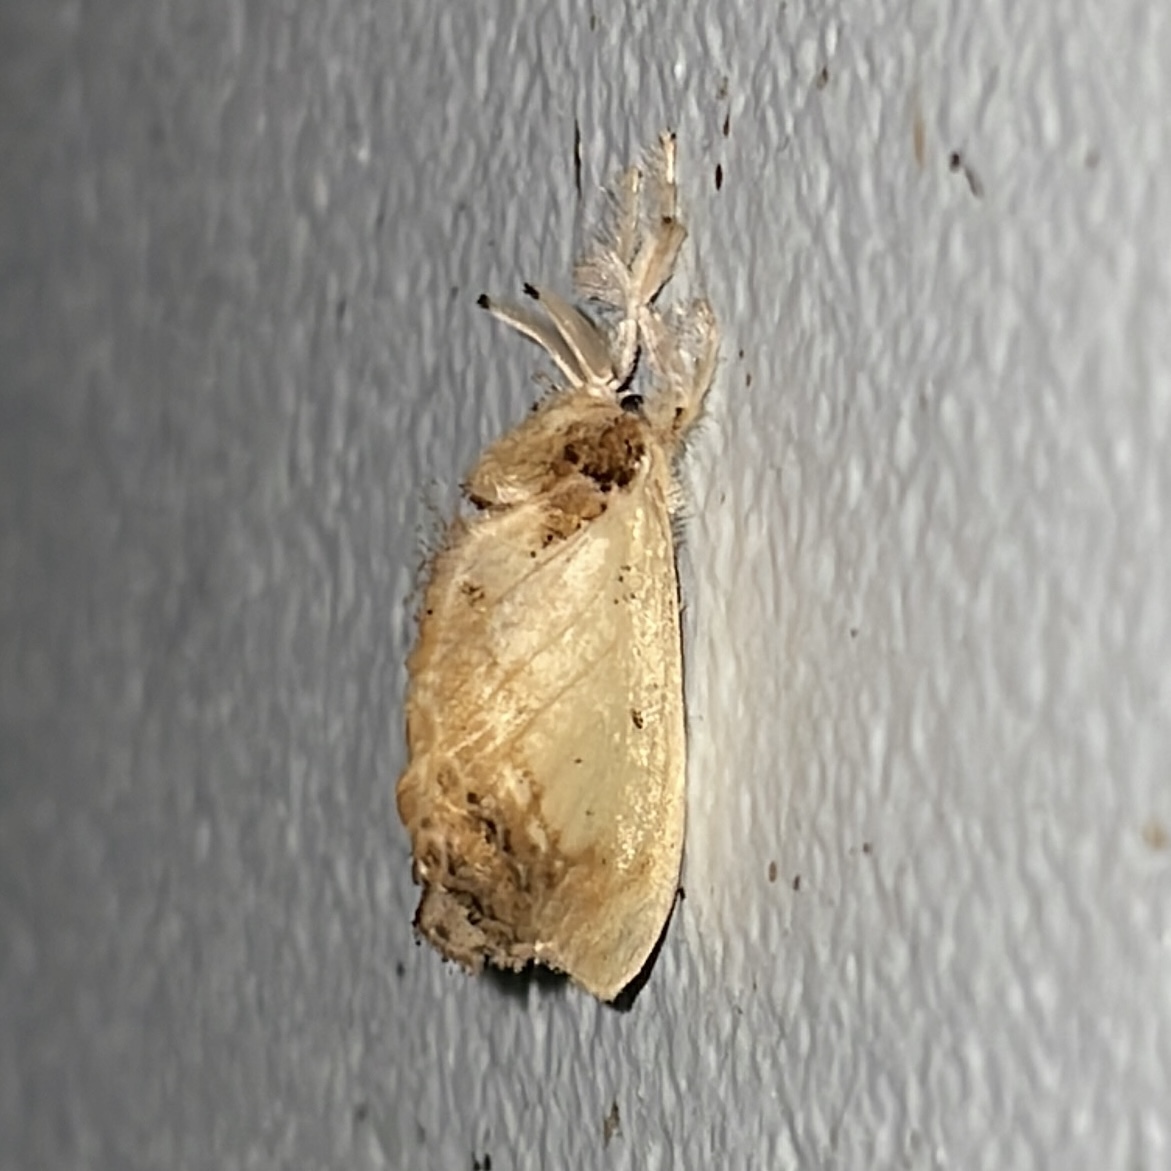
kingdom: Animalia
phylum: Arthropoda
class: Insecta
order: Lepidoptera
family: Dalceridae
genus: Minacraga
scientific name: Minacraga disconitens
